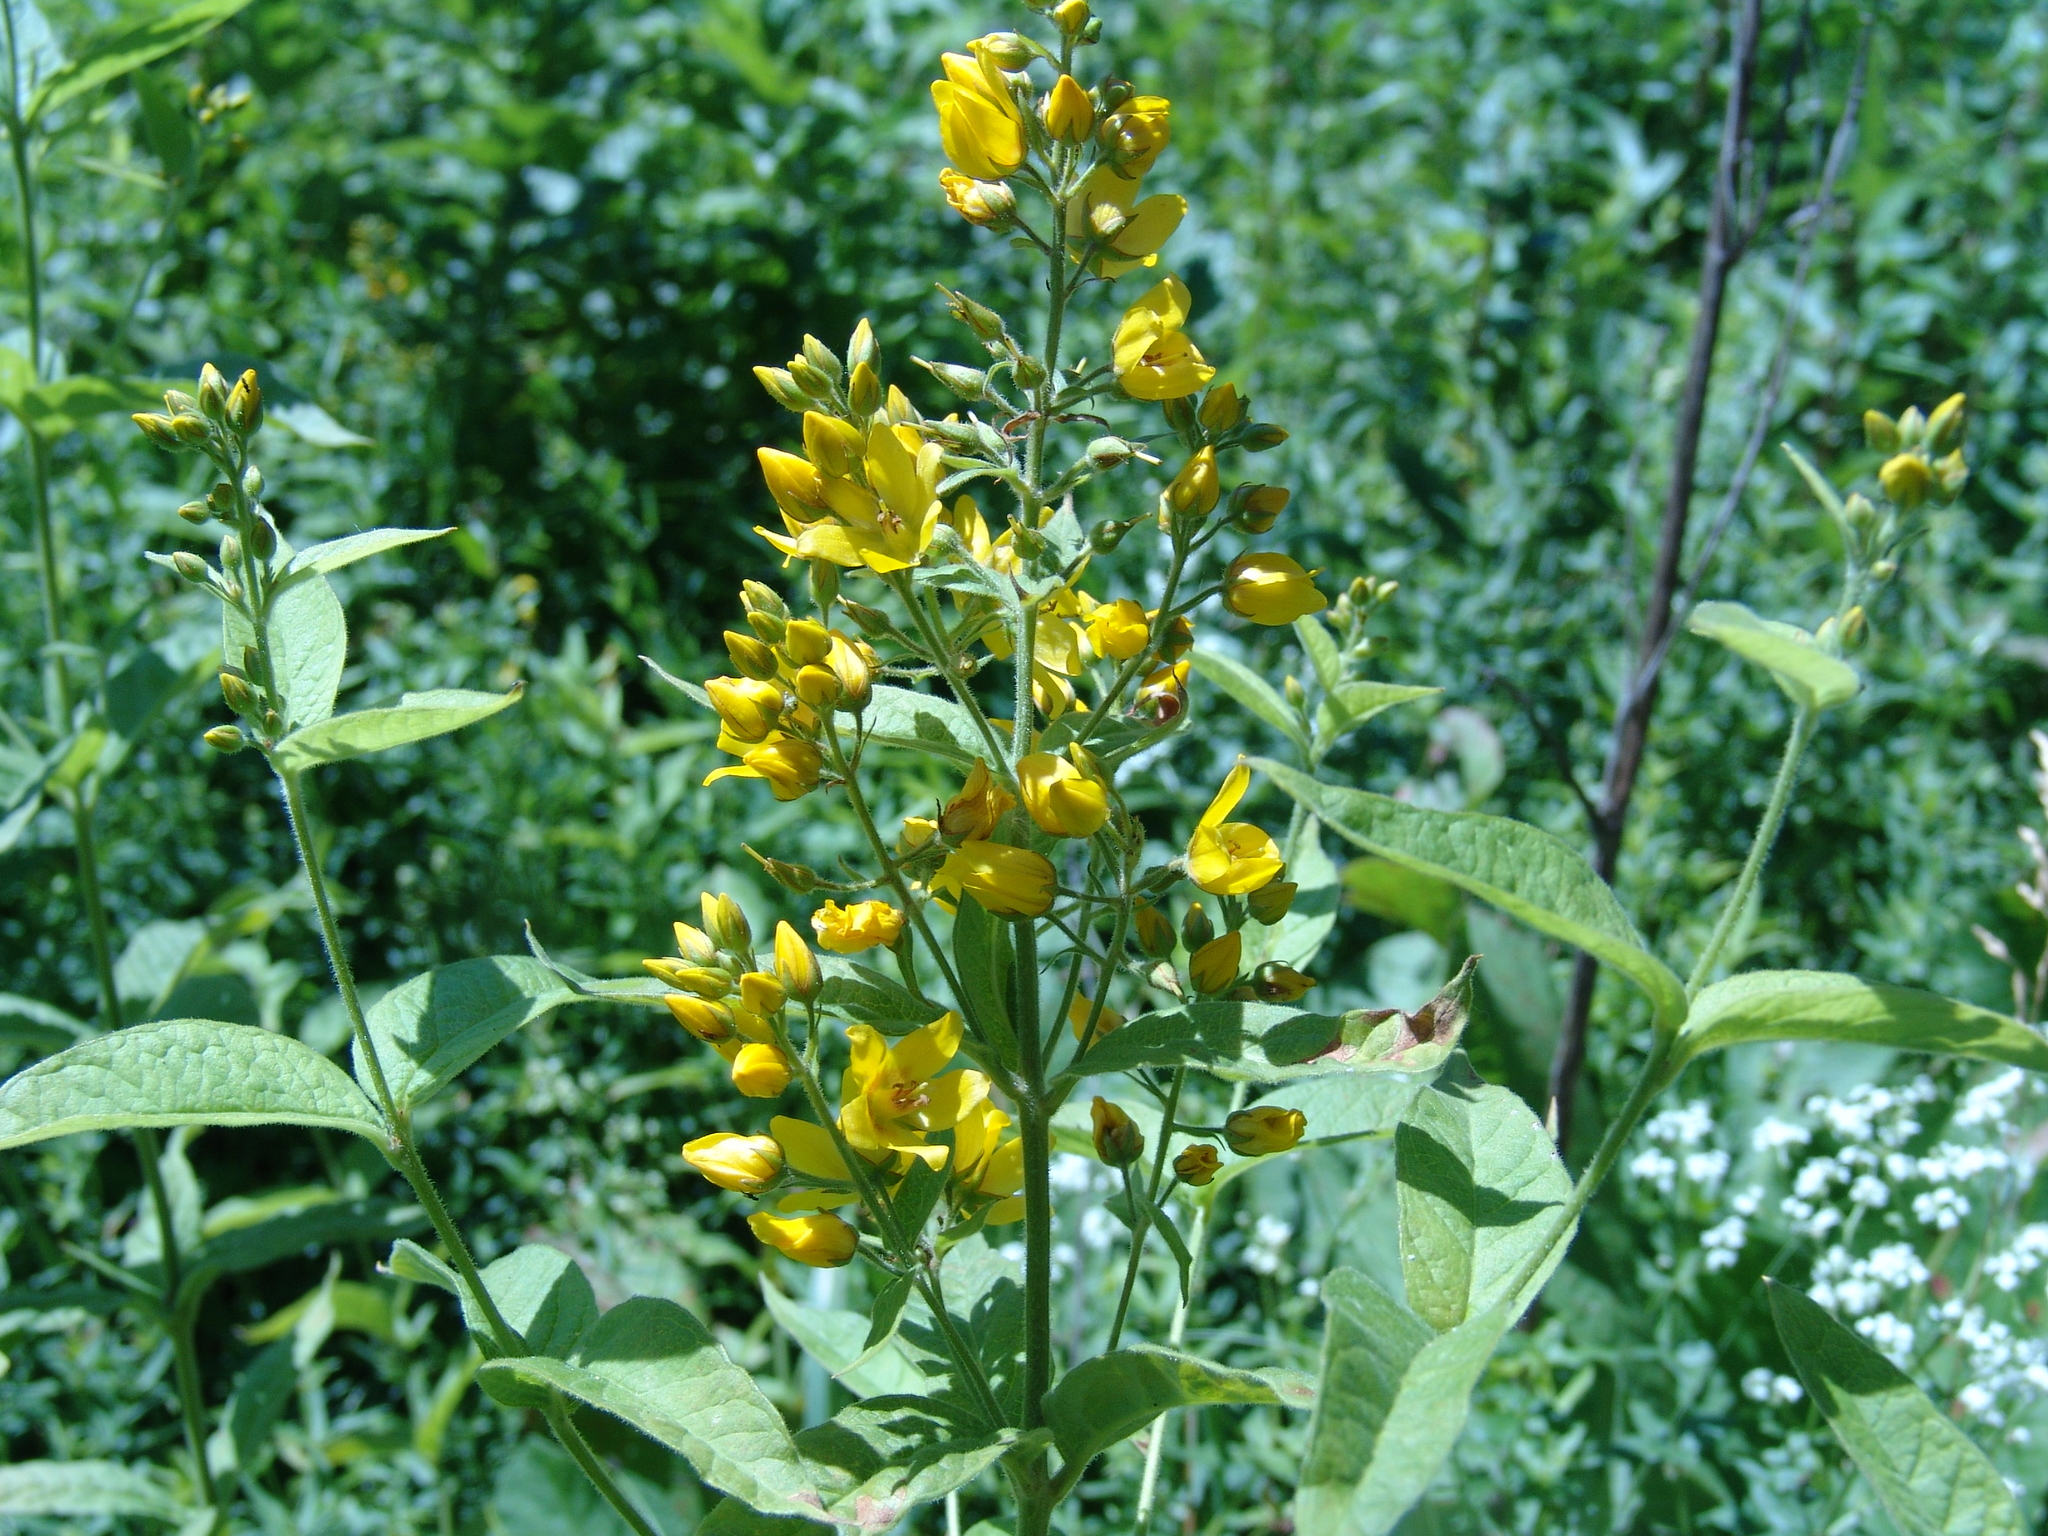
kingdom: Plantae
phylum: Tracheophyta
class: Magnoliopsida
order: Ericales
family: Primulaceae
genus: Lysimachia
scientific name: Lysimachia vulgaris
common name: Yellow loosestrife
